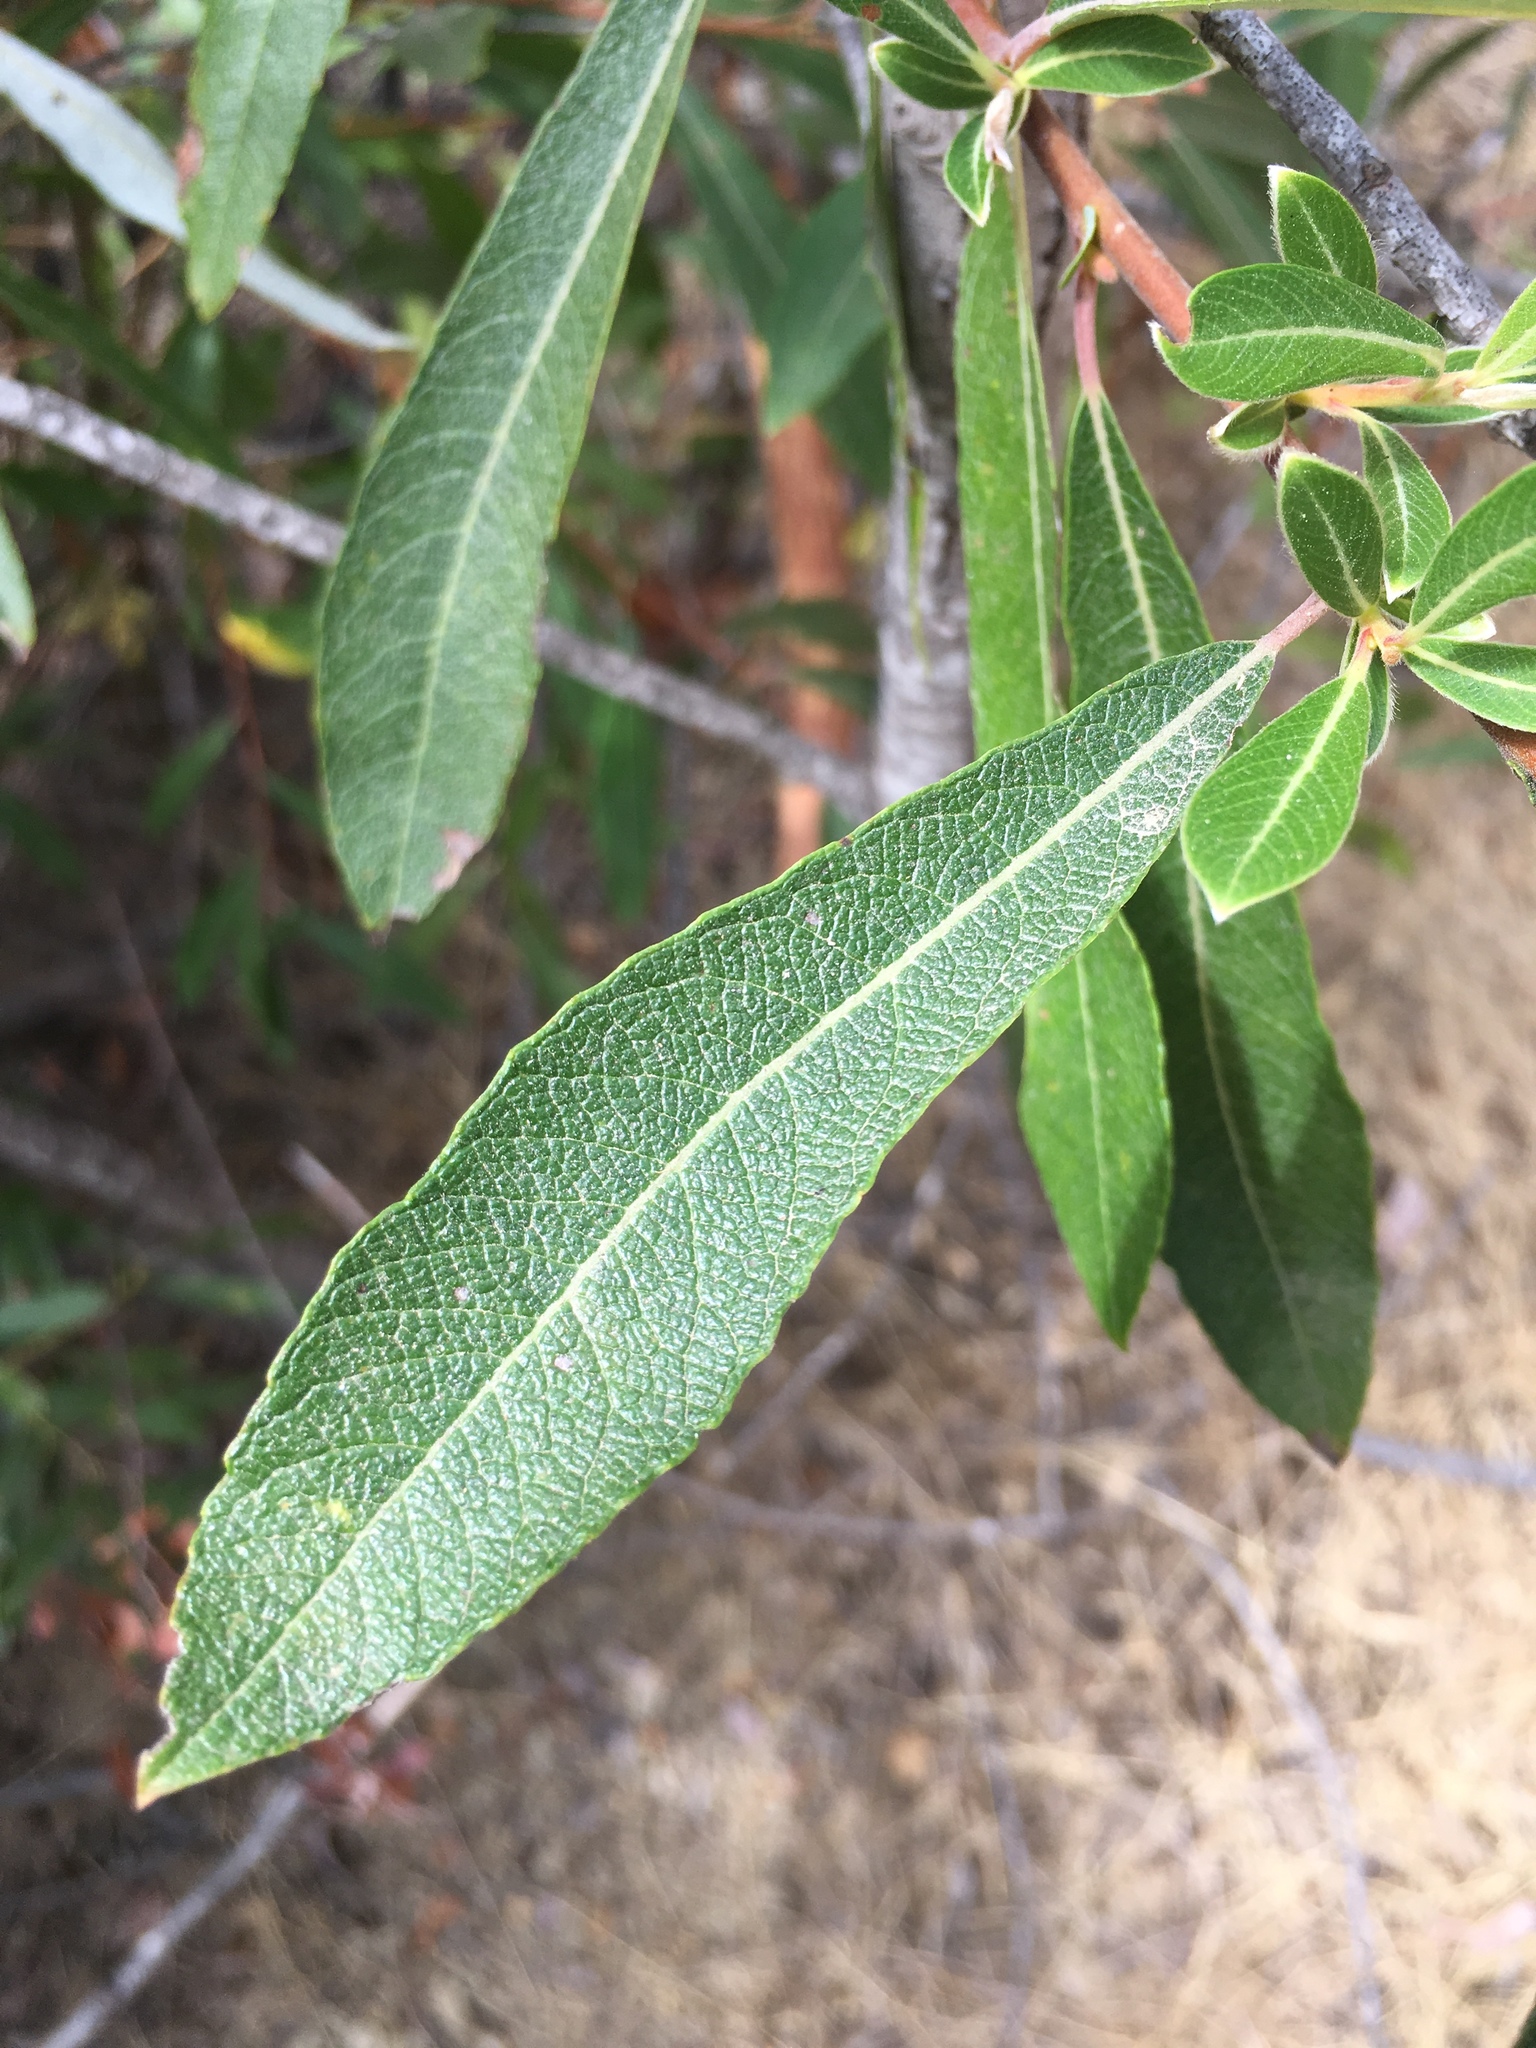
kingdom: Plantae
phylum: Tracheophyta
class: Magnoliopsida
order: Malpighiales
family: Salicaceae
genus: Salix
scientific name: Salix lasiolepis
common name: Arroyo willow
